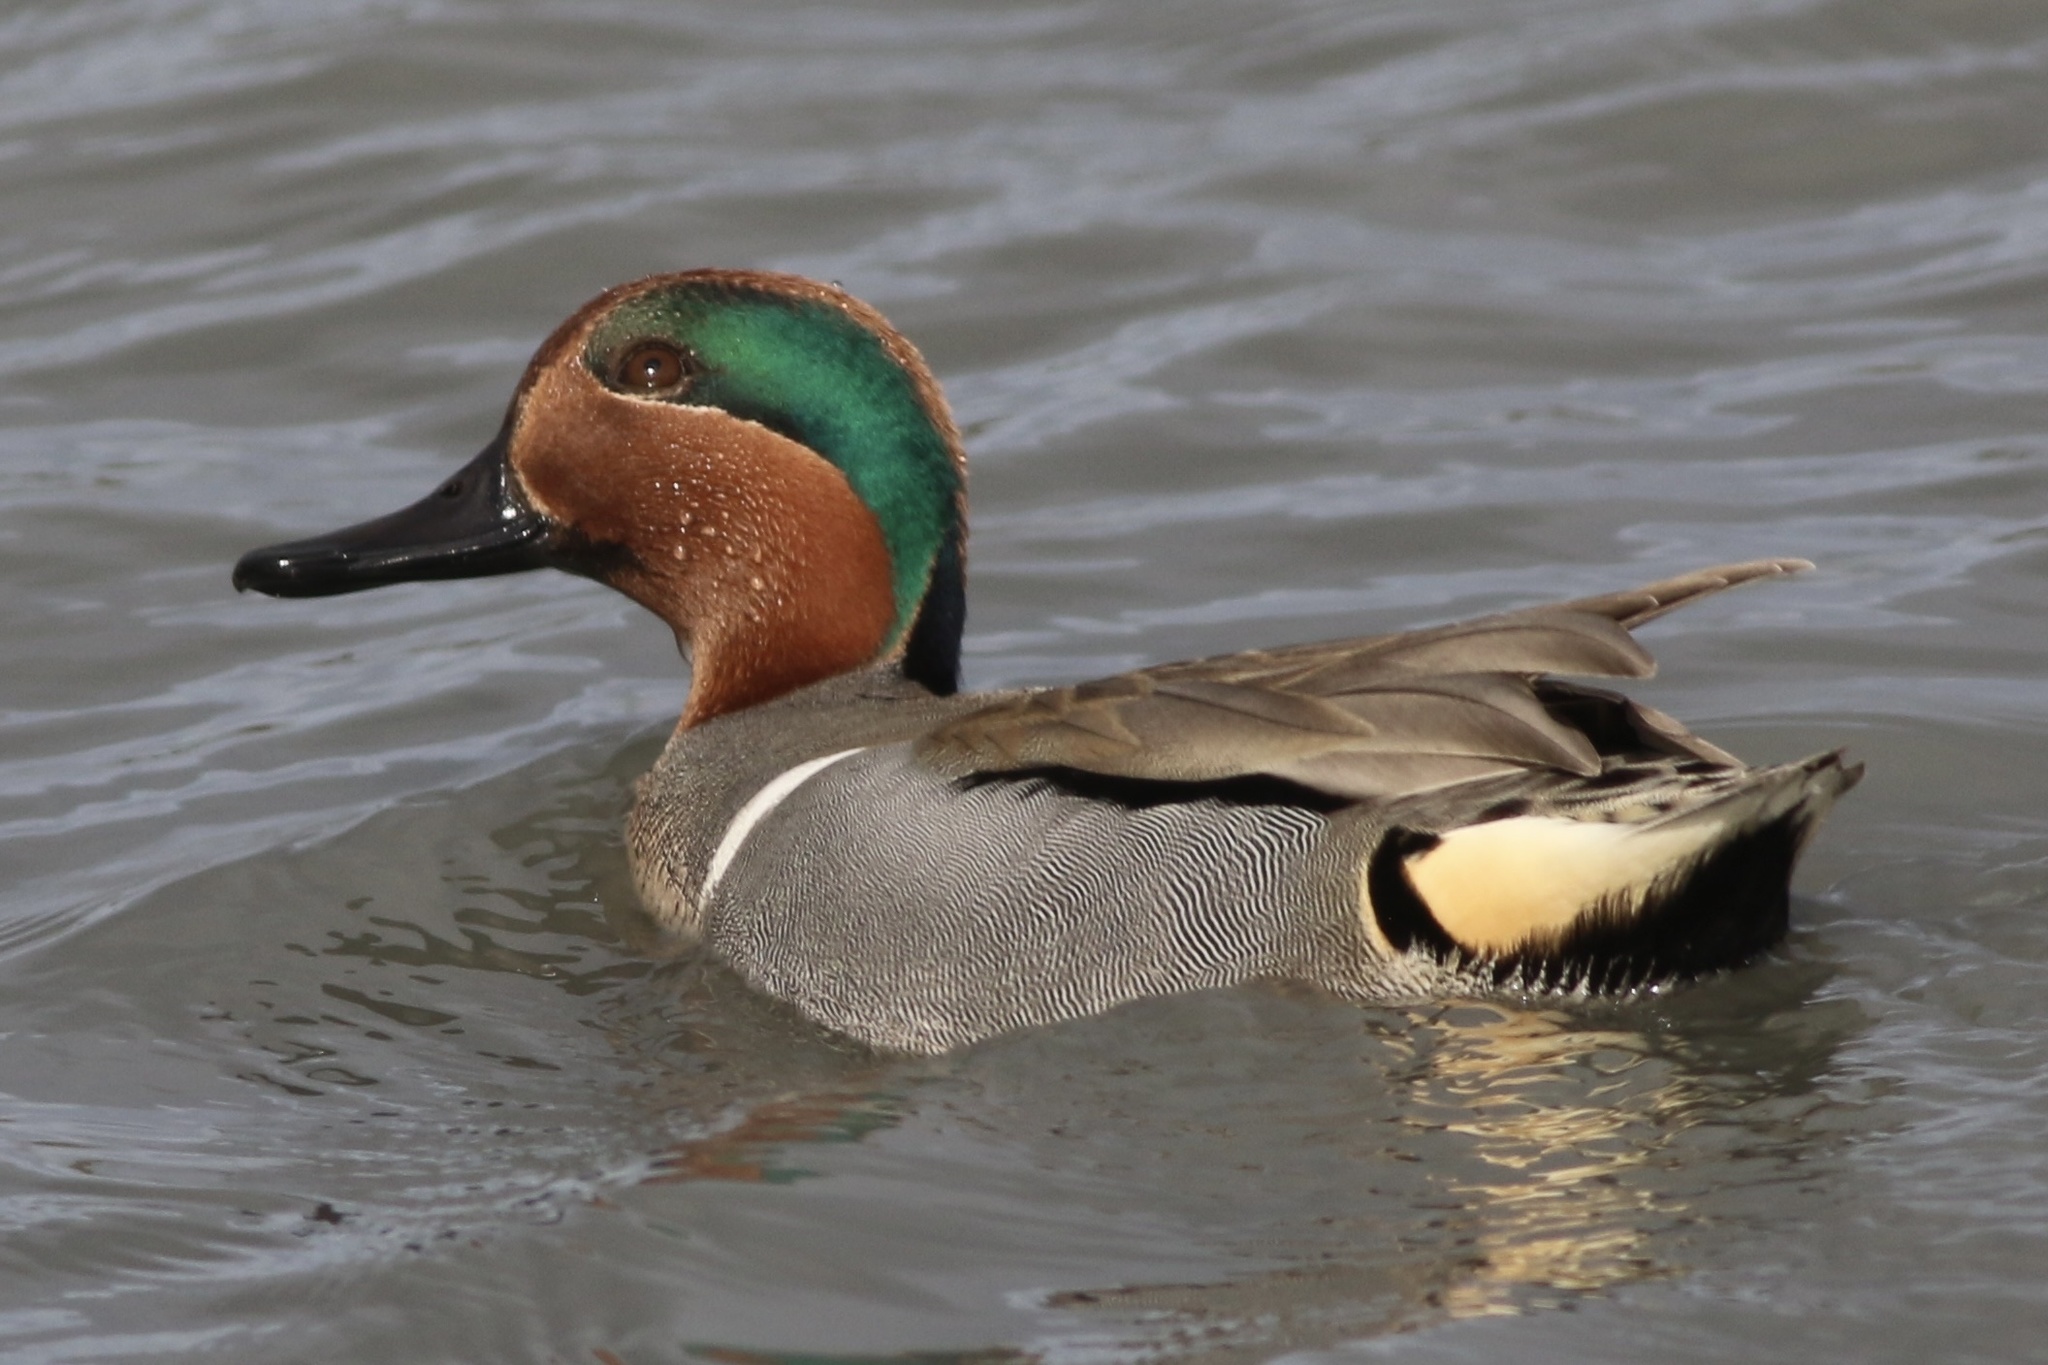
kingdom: Animalia
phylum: Chordata
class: Aves
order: Anseriformes
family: Anatidae
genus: Anas
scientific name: Anas crecca
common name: Eurasian teal
